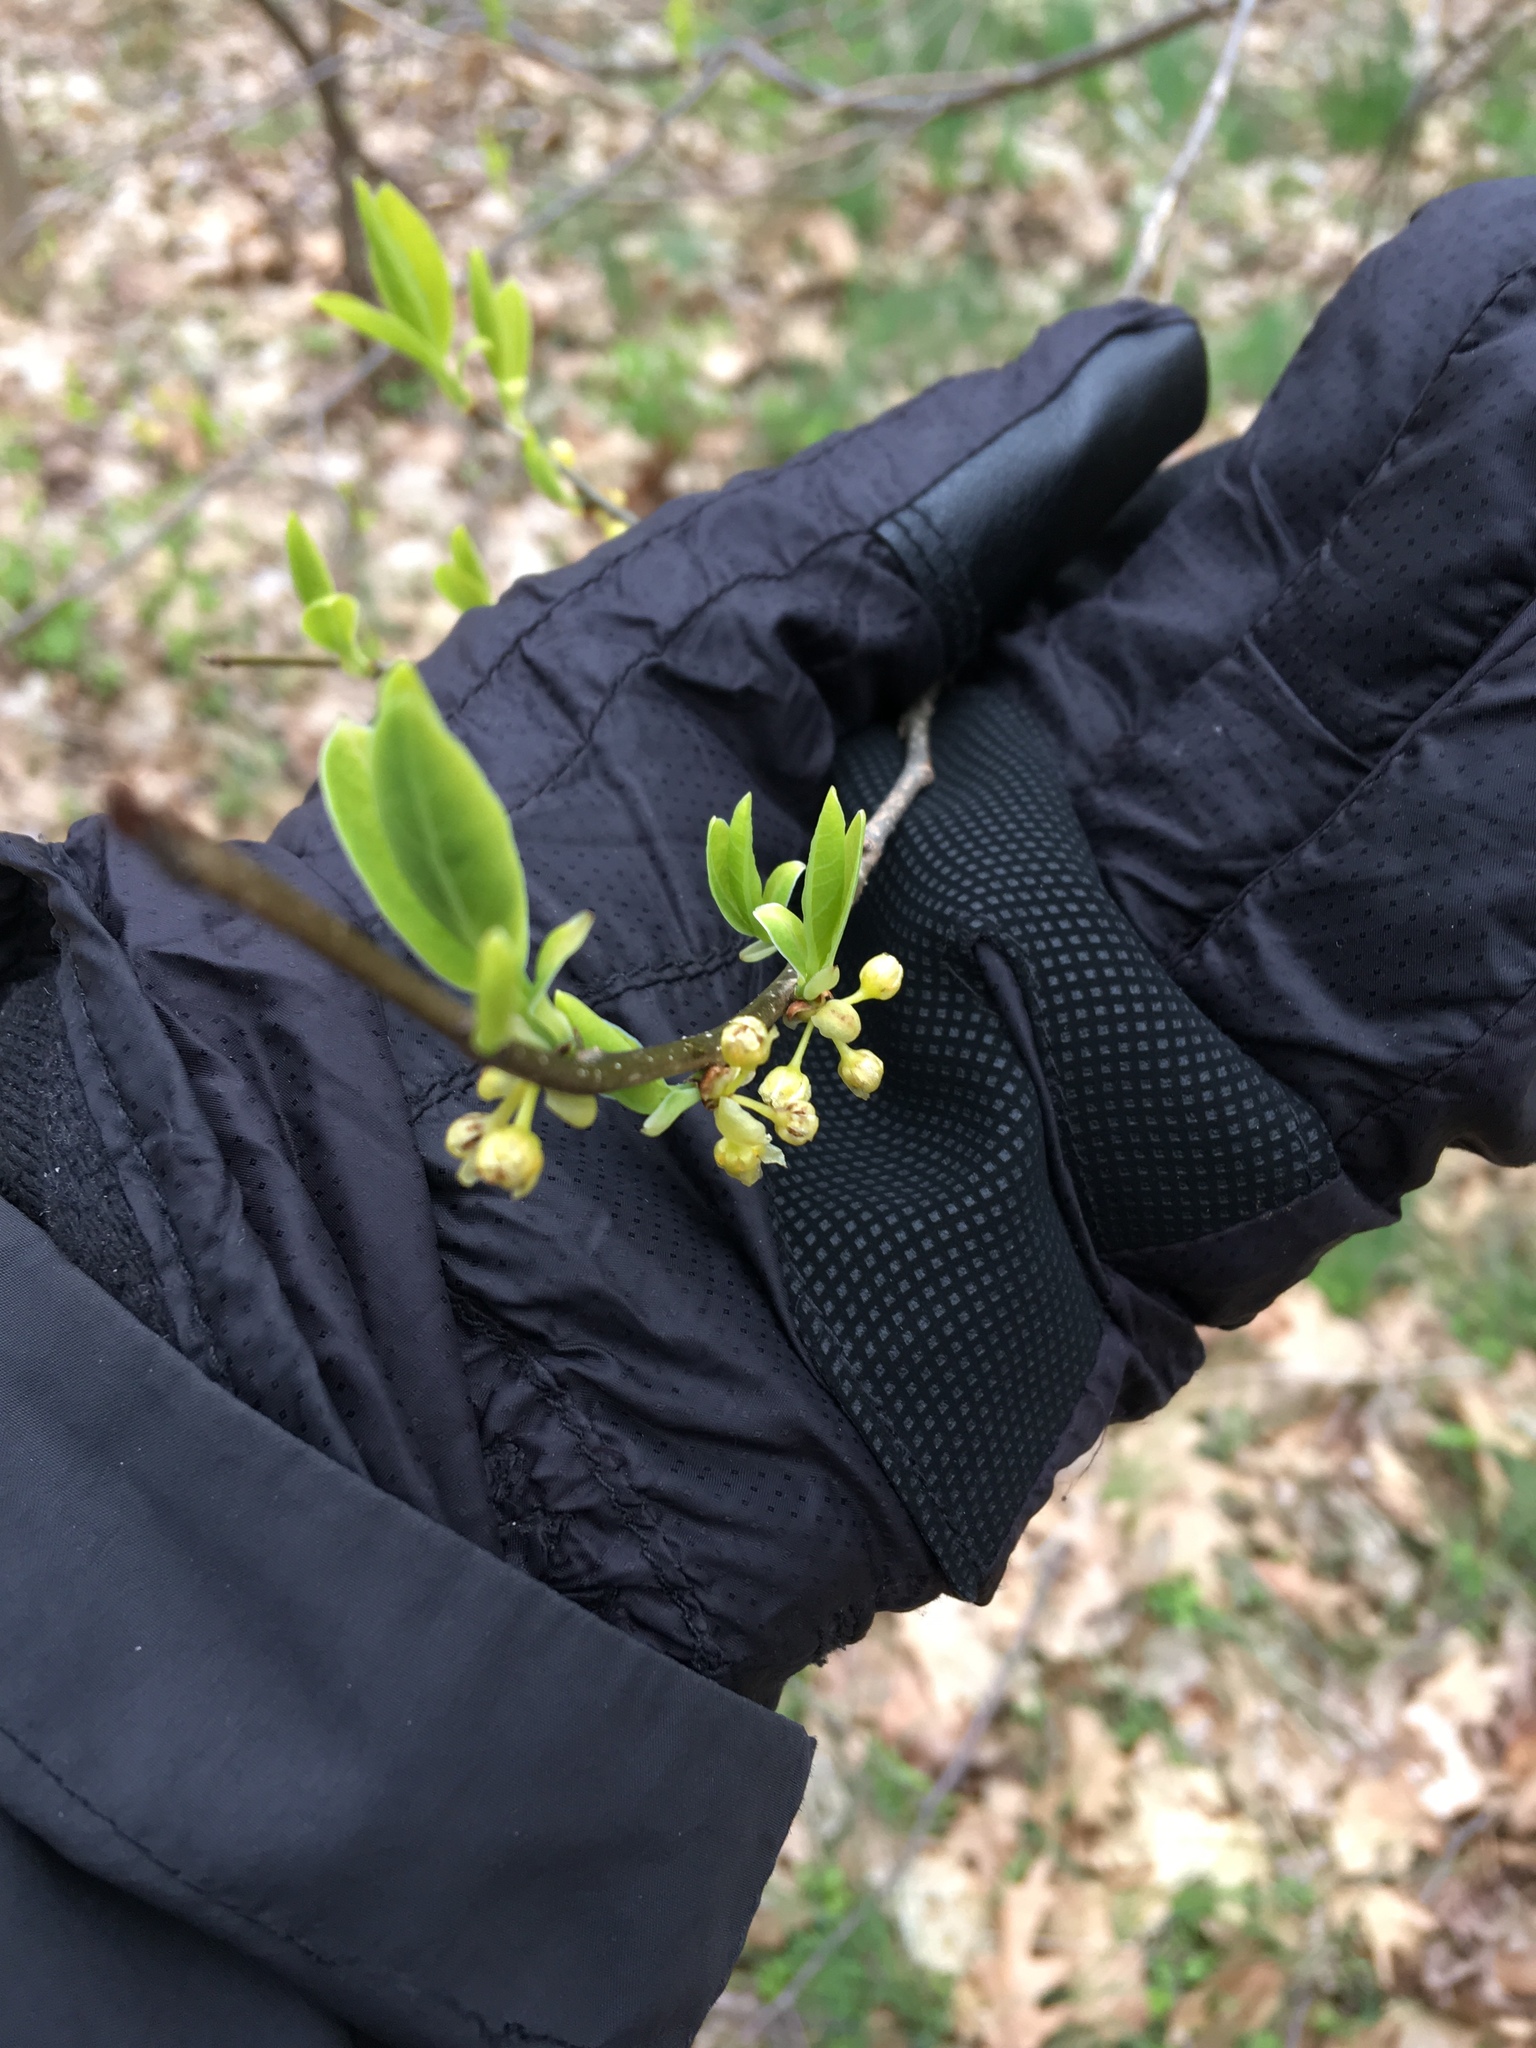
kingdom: Plantae
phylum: Tracheophyta
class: Magnoliopsida
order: Laurales
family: Lauraceae
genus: Lindera
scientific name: Lindera benzoin
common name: Spicebush
